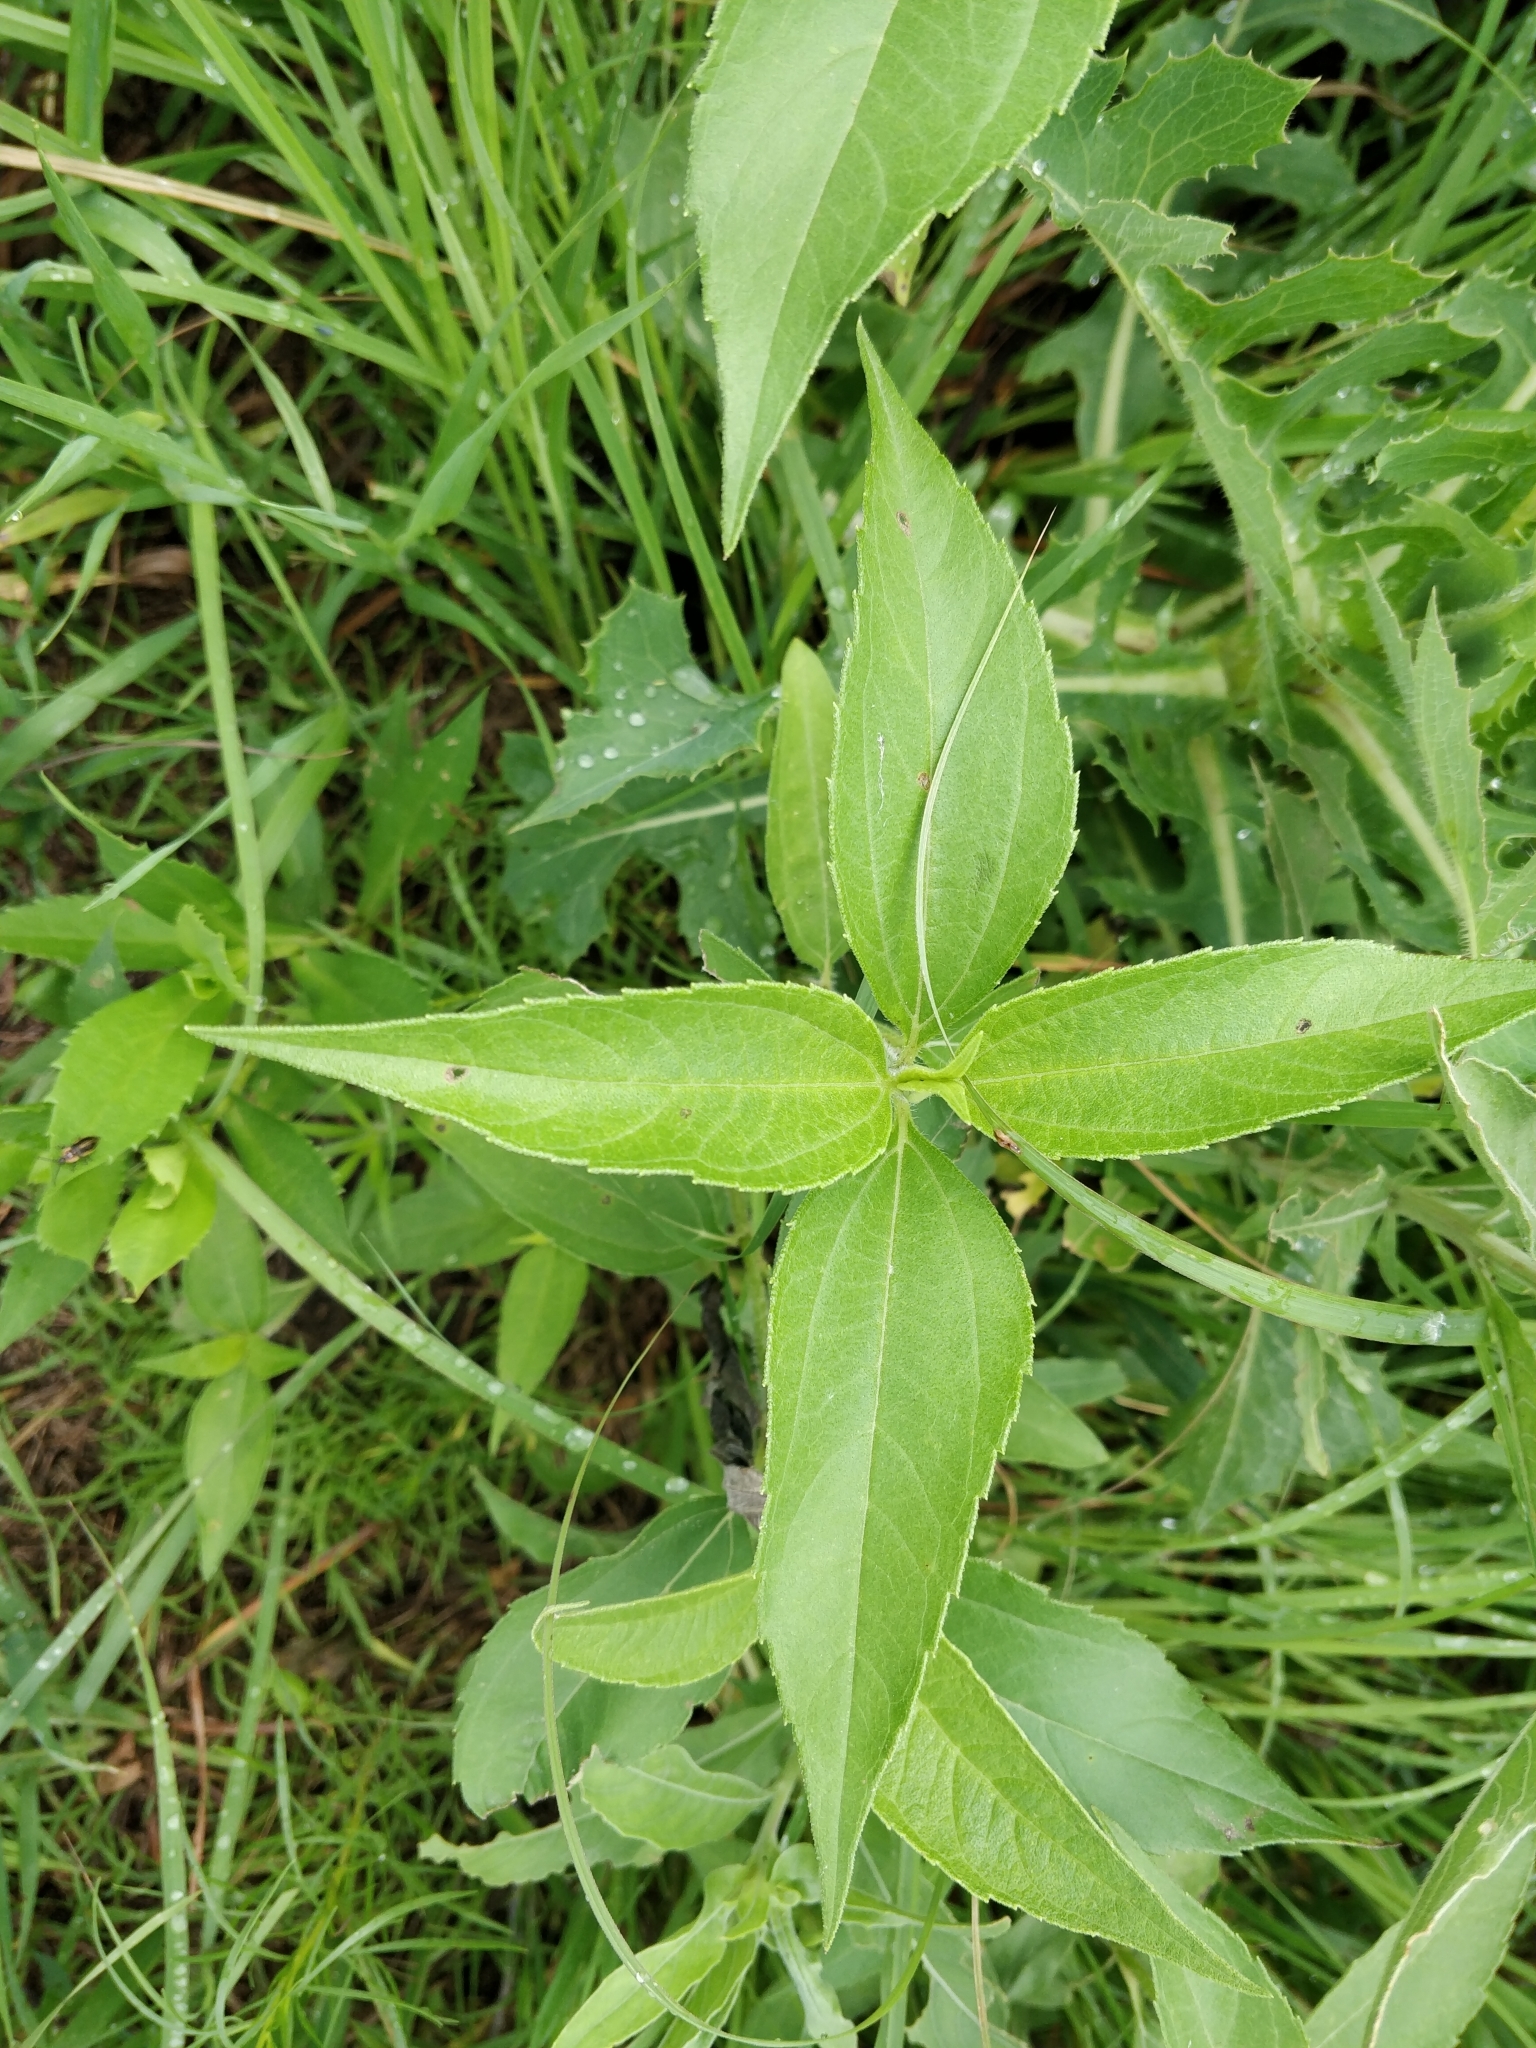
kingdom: Plantae
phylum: Tracheophyta
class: Magnoliopsida
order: Asterales
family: Asteraceae
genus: Helianthus
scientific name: Helianthus tuberosus
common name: Jerusalem artichoke
